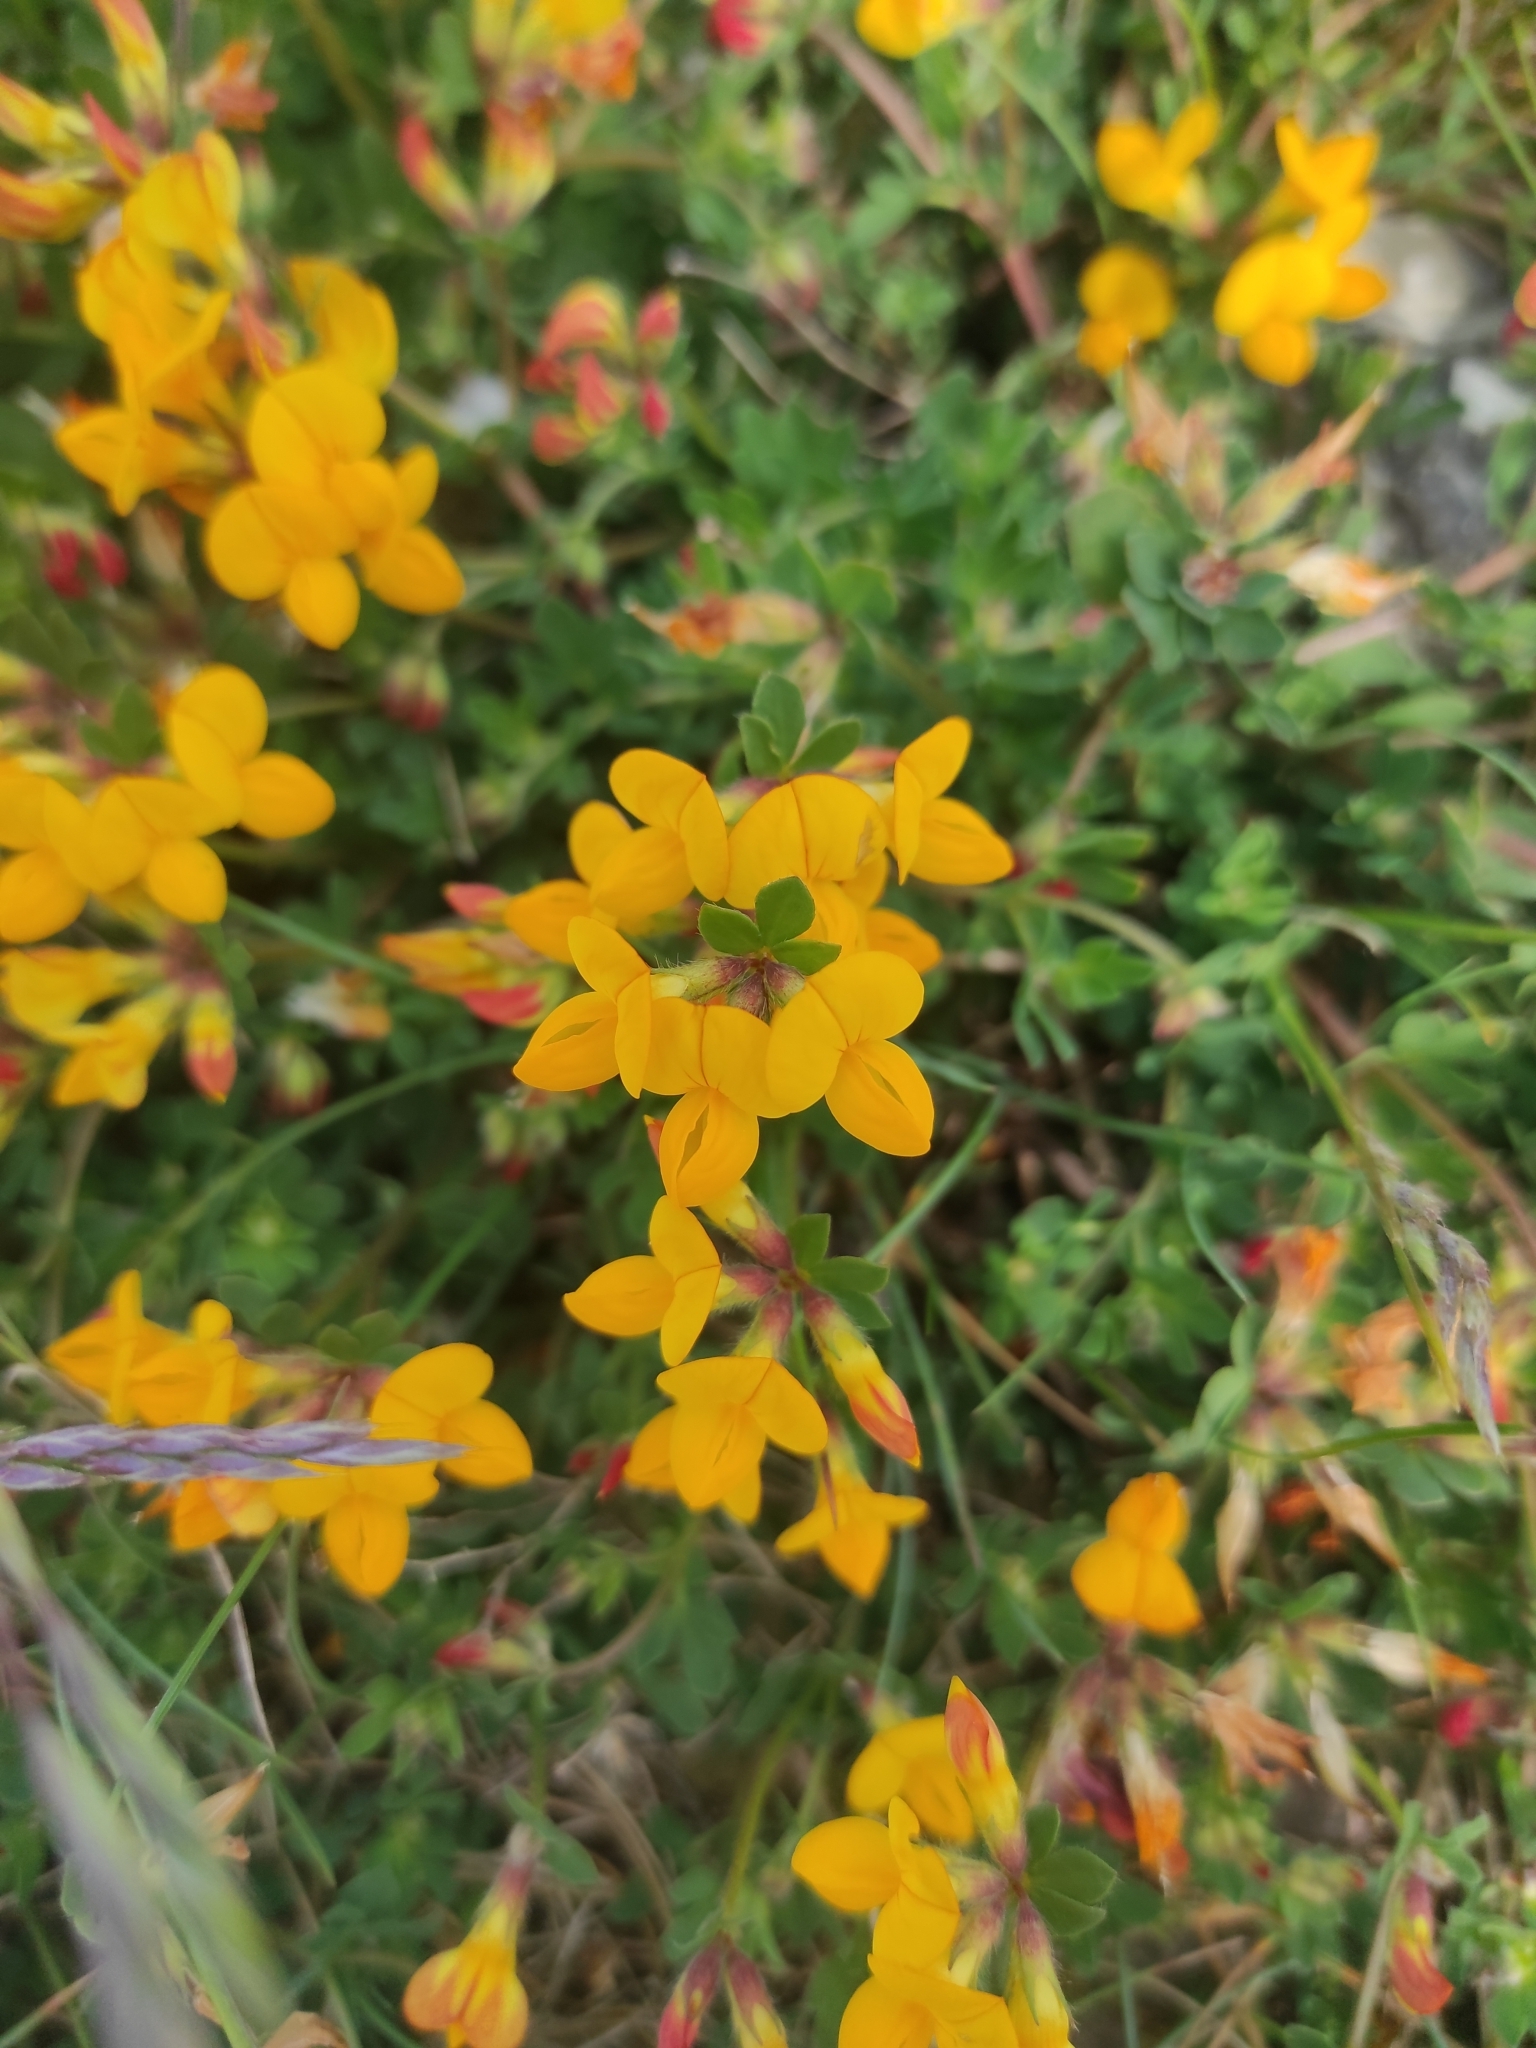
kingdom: Plantae
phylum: Tracheophyta
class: Magnoliopsida
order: Fabales
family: Fabaceae
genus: Lotus
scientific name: Lotus corniculatus
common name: Common bird's-foot-trefoil
